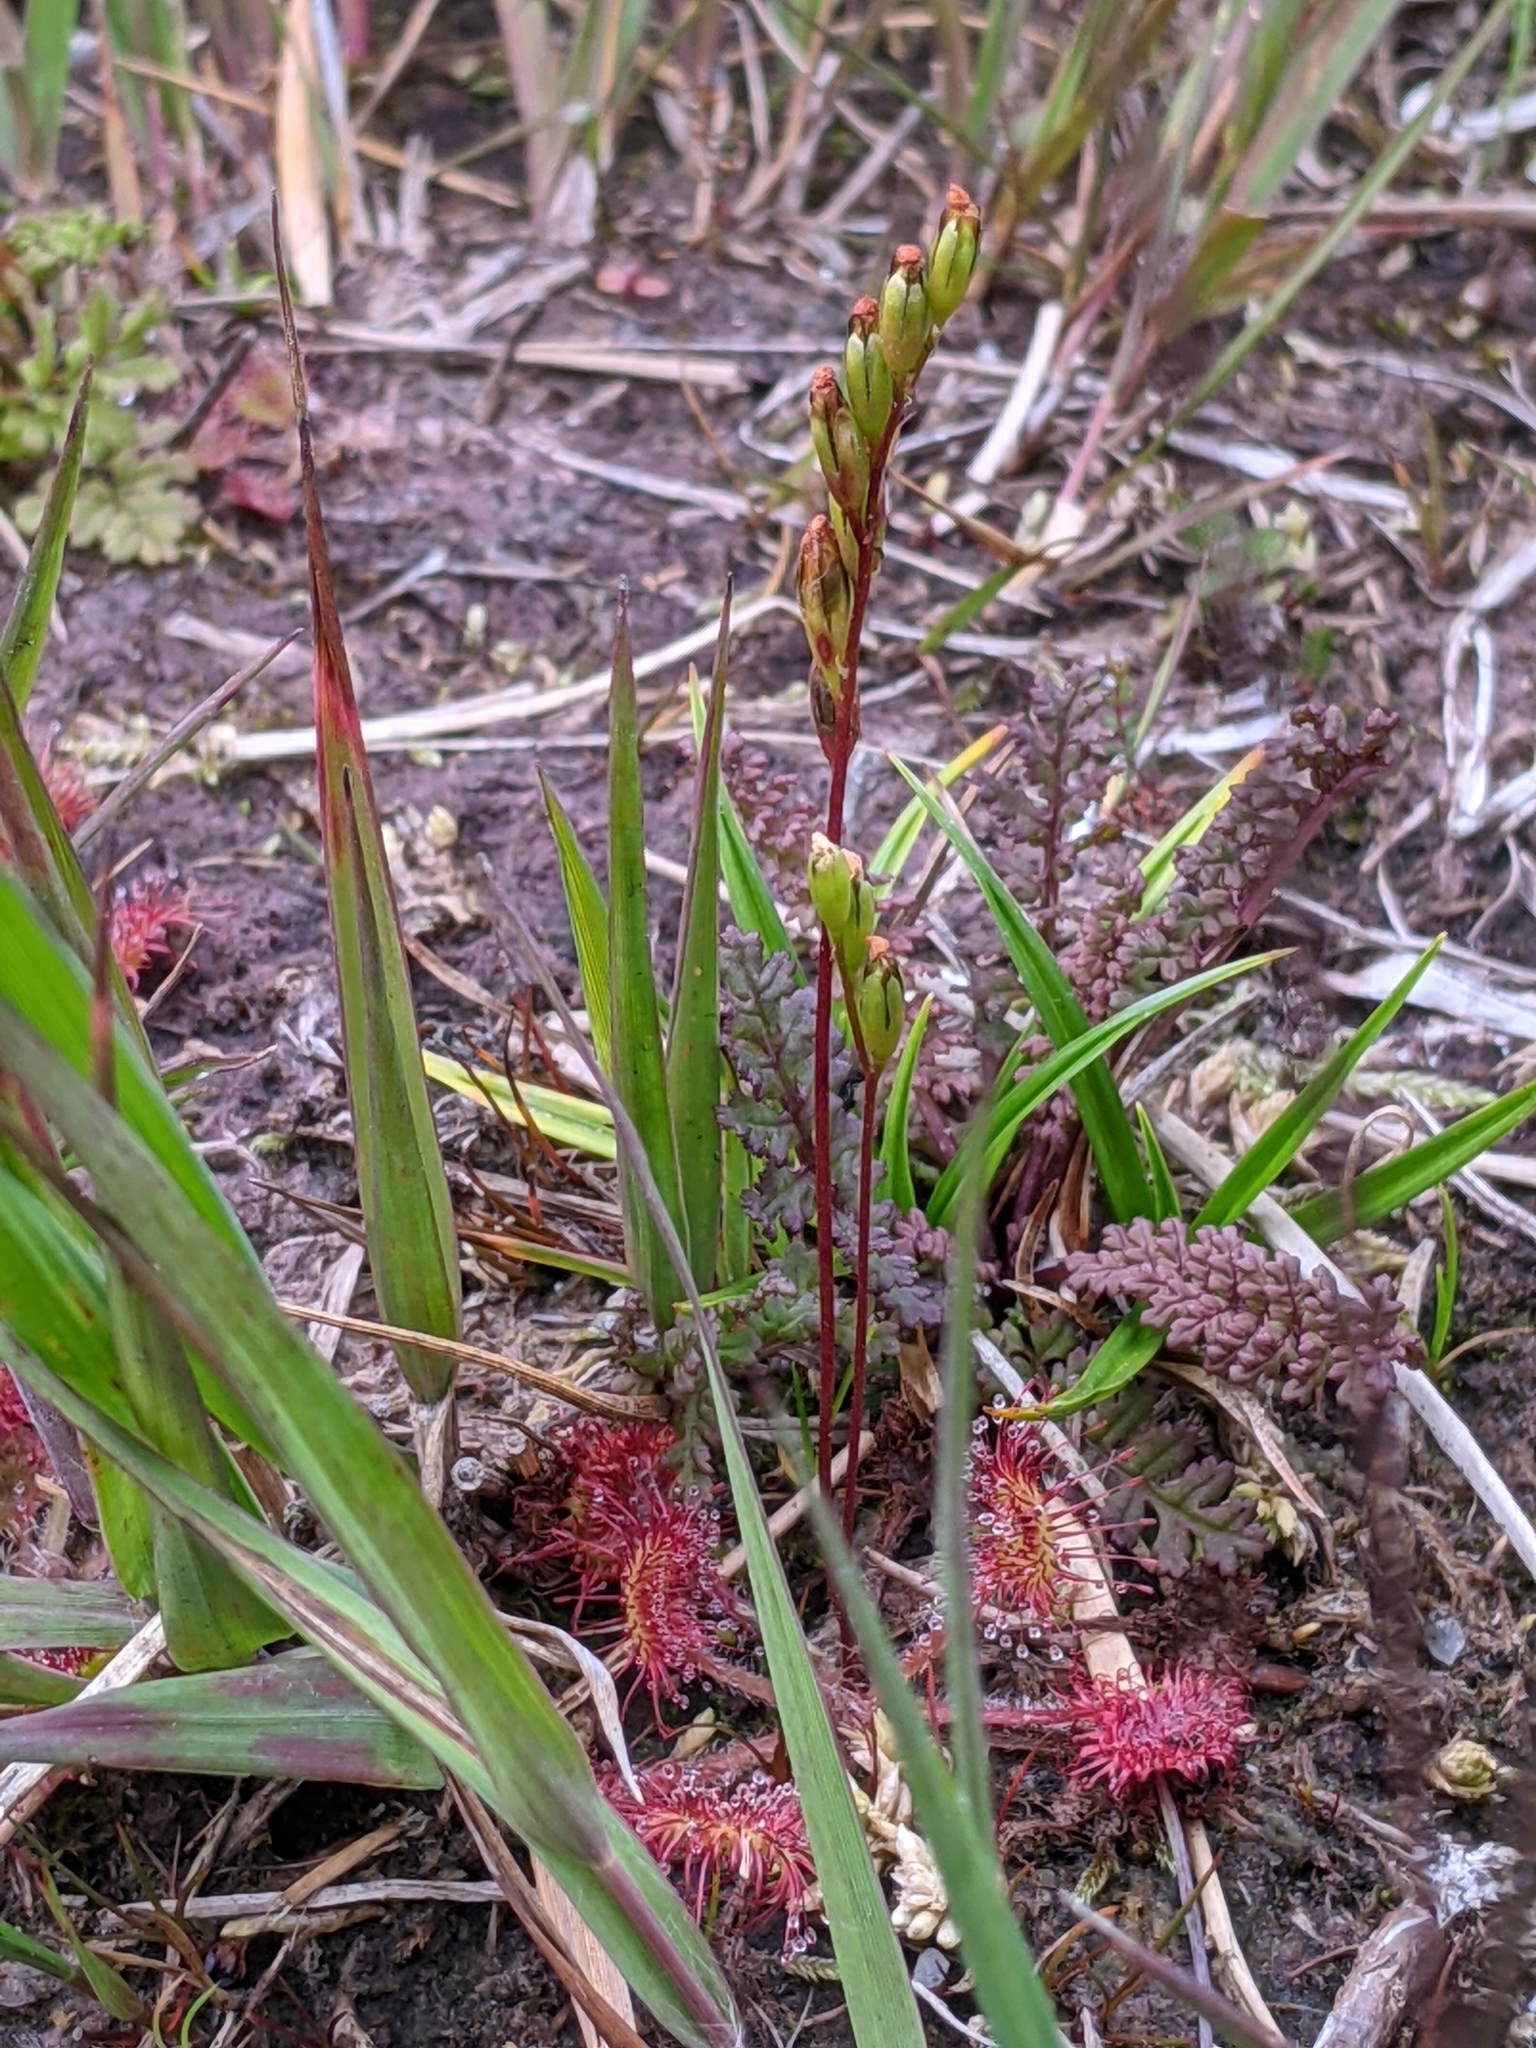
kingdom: Plantae
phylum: Tracheophyta
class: Magnoliopsida
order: Caryophyllales
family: Droseraceae
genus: Drosera
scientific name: Drosera rotundifolia
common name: Round-leaved sundew
